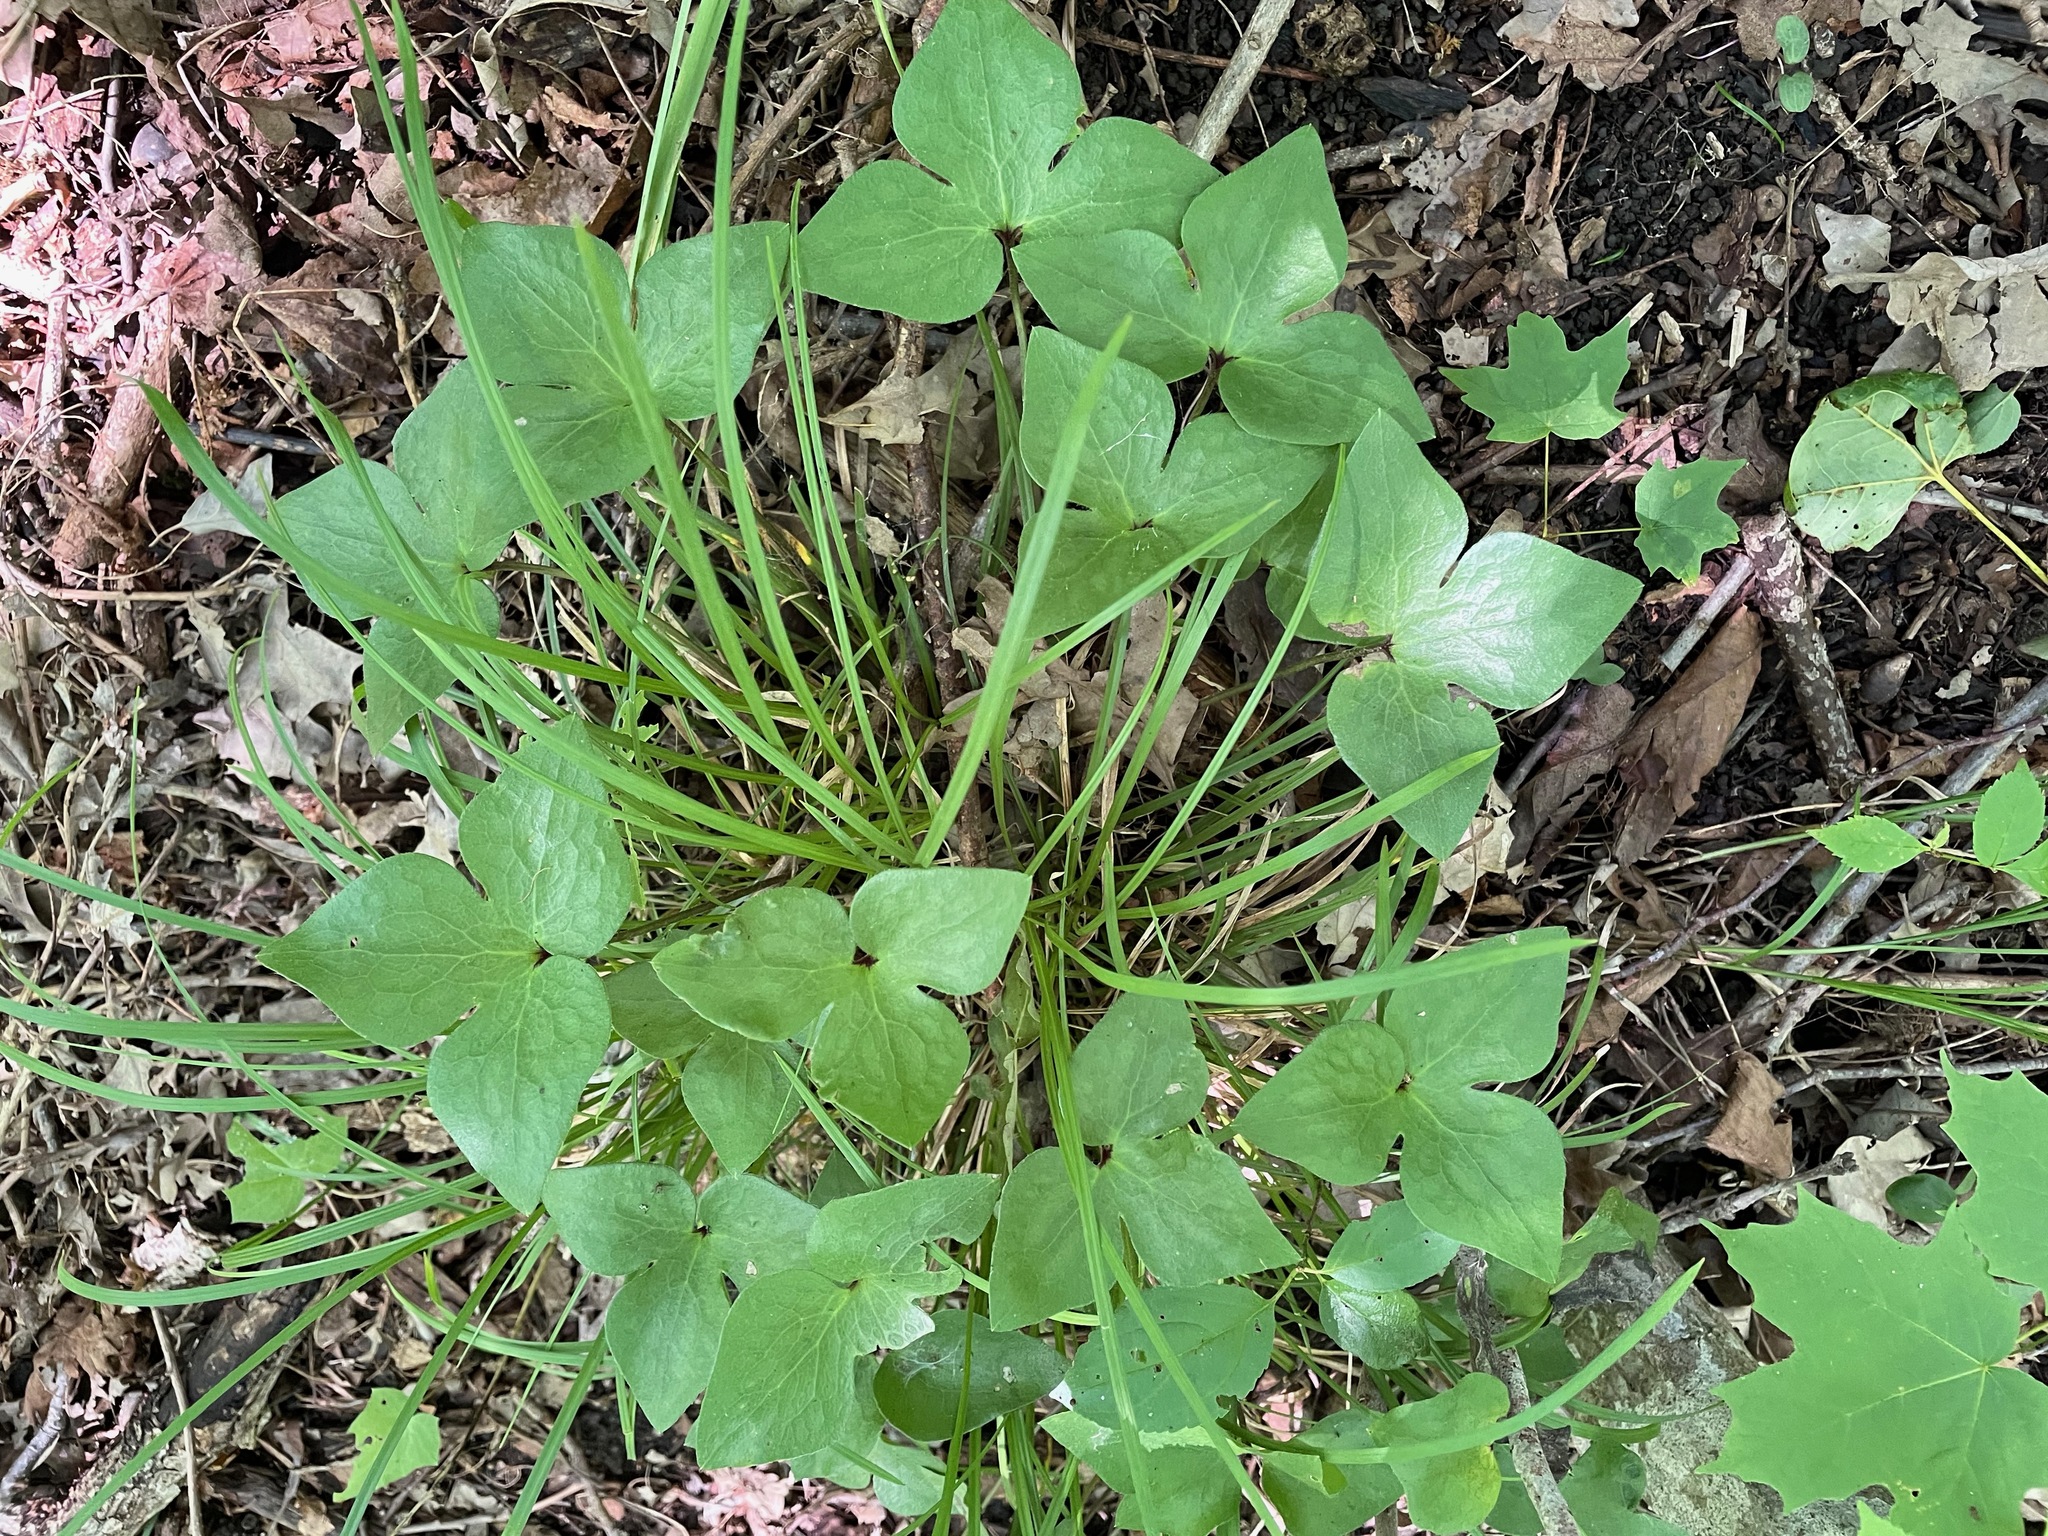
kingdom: Plantae
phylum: Tracheophyta
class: Magnoliopsida
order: Ranunculales
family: Ranunculaceae
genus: Hepatica
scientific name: Hepatica acutiloba
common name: Sharp-lobed hepatica
